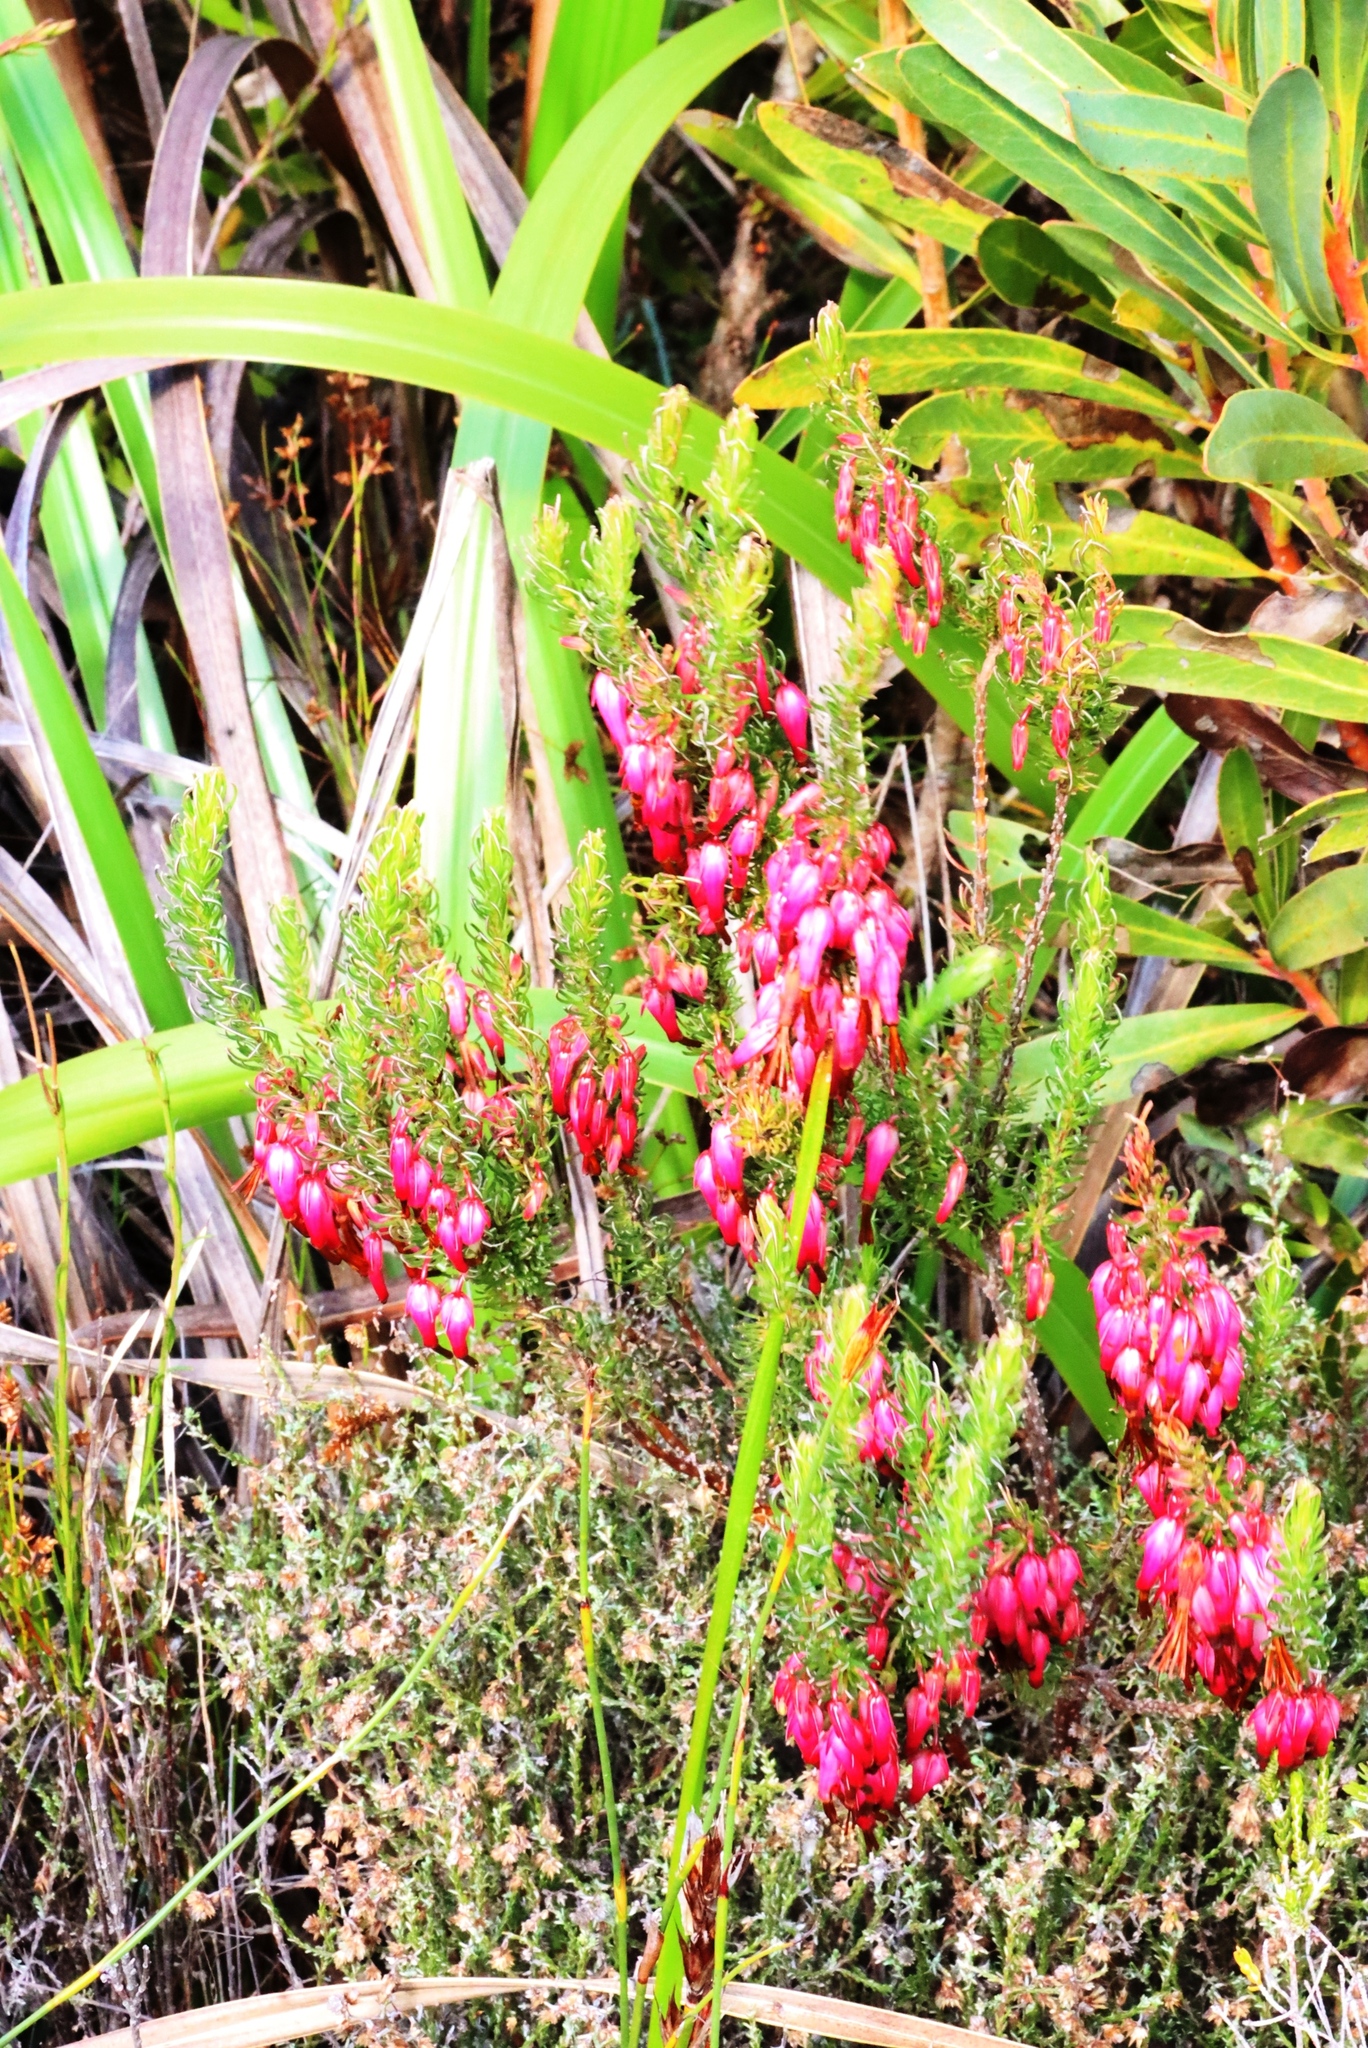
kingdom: Plantae
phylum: Tracheophyta
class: Magnoliopsida
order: Ericales
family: Ericaceae
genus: Erica
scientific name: Erica plukenetii
